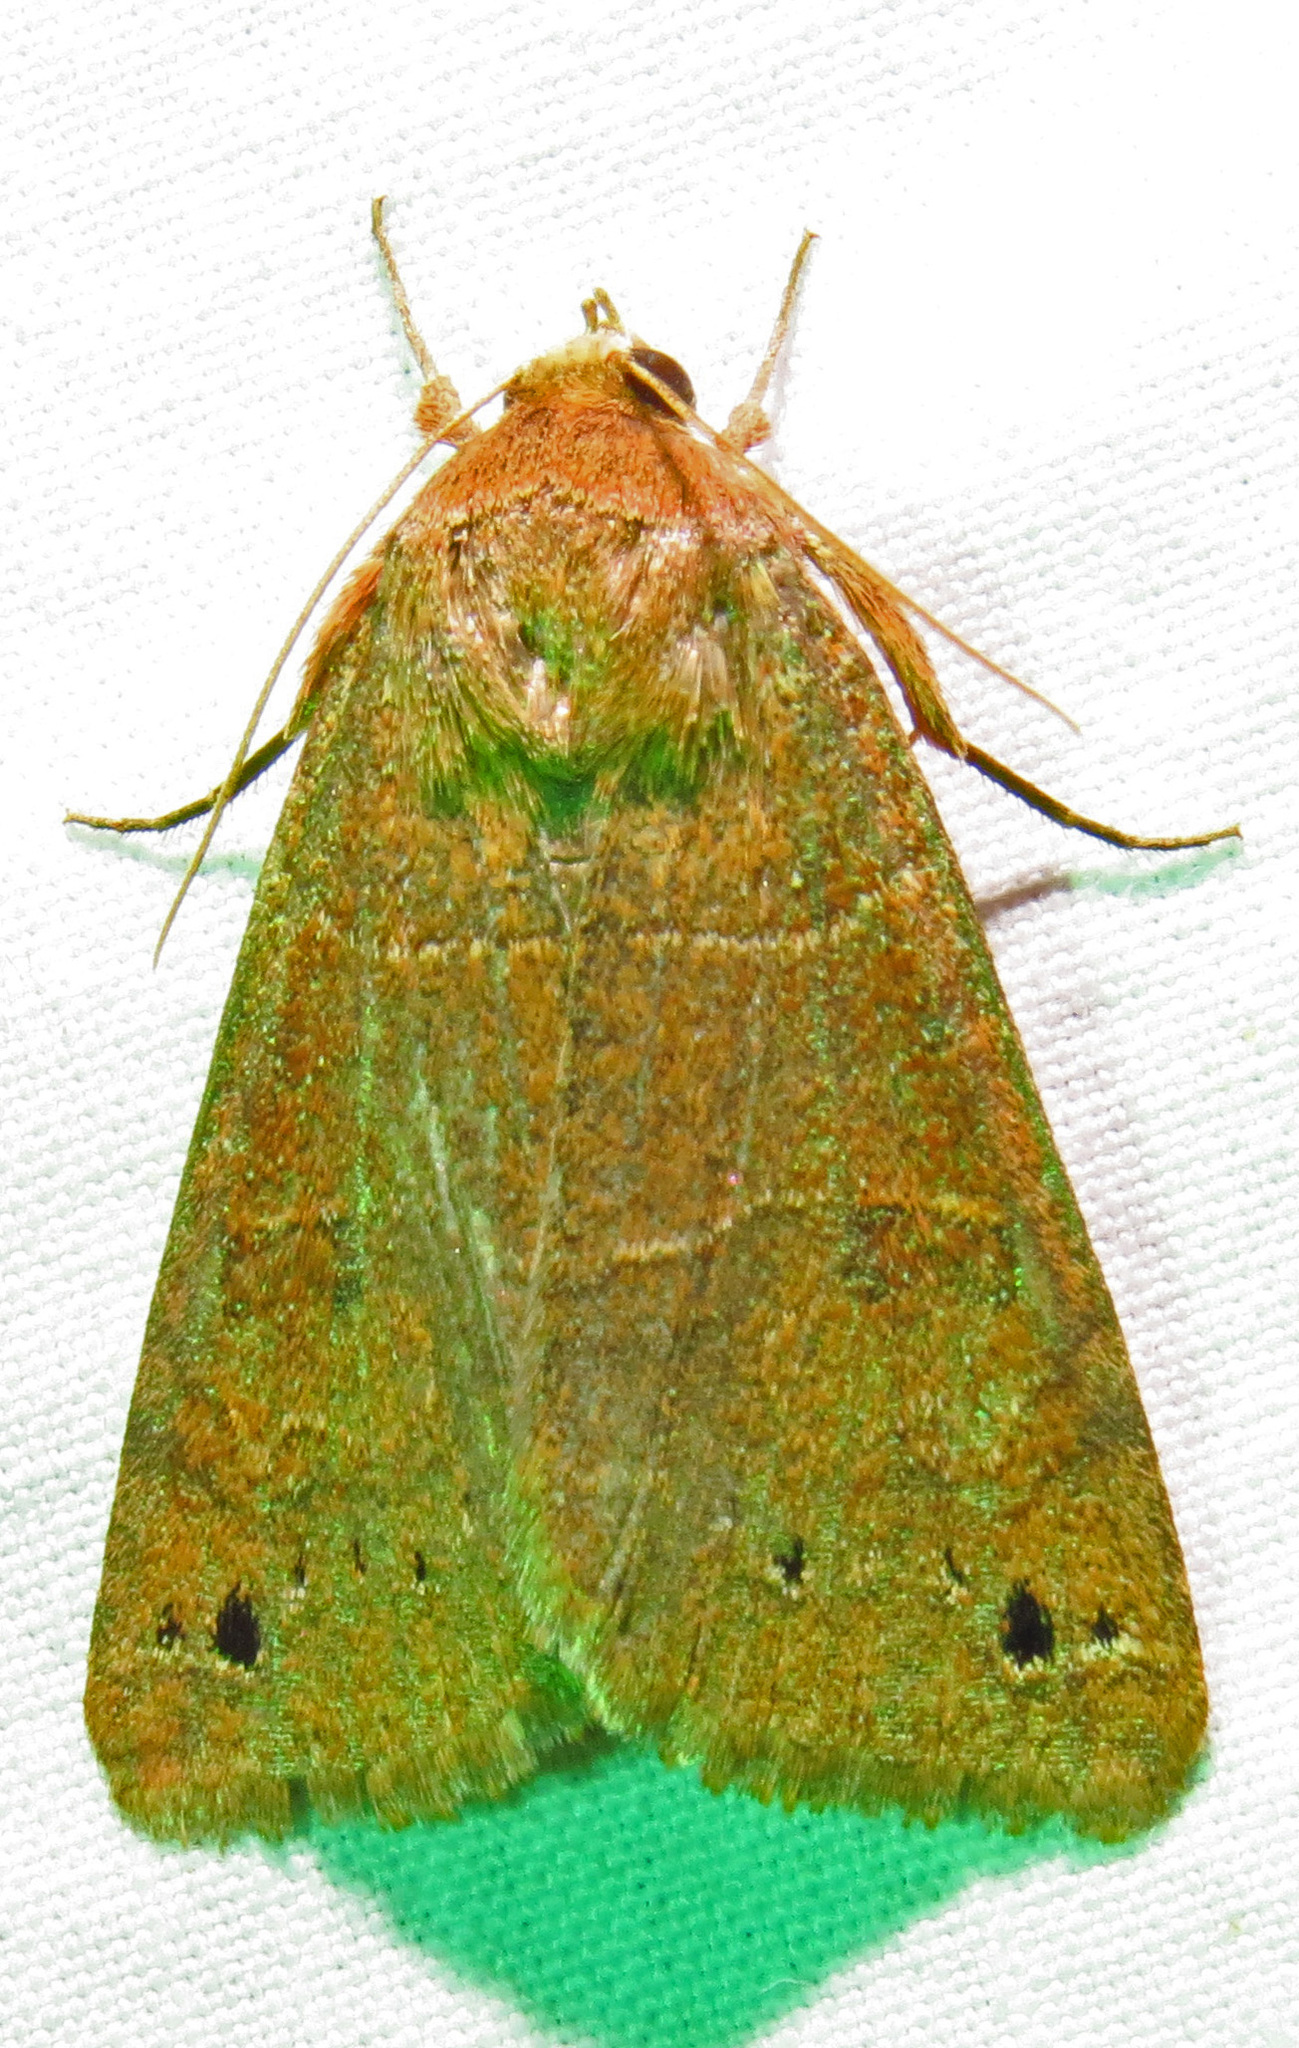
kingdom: Animalia
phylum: Arthropoda
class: Insecta
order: Lepidoptera
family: Erebidae
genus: Cissusa
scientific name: Cissusa spadix
